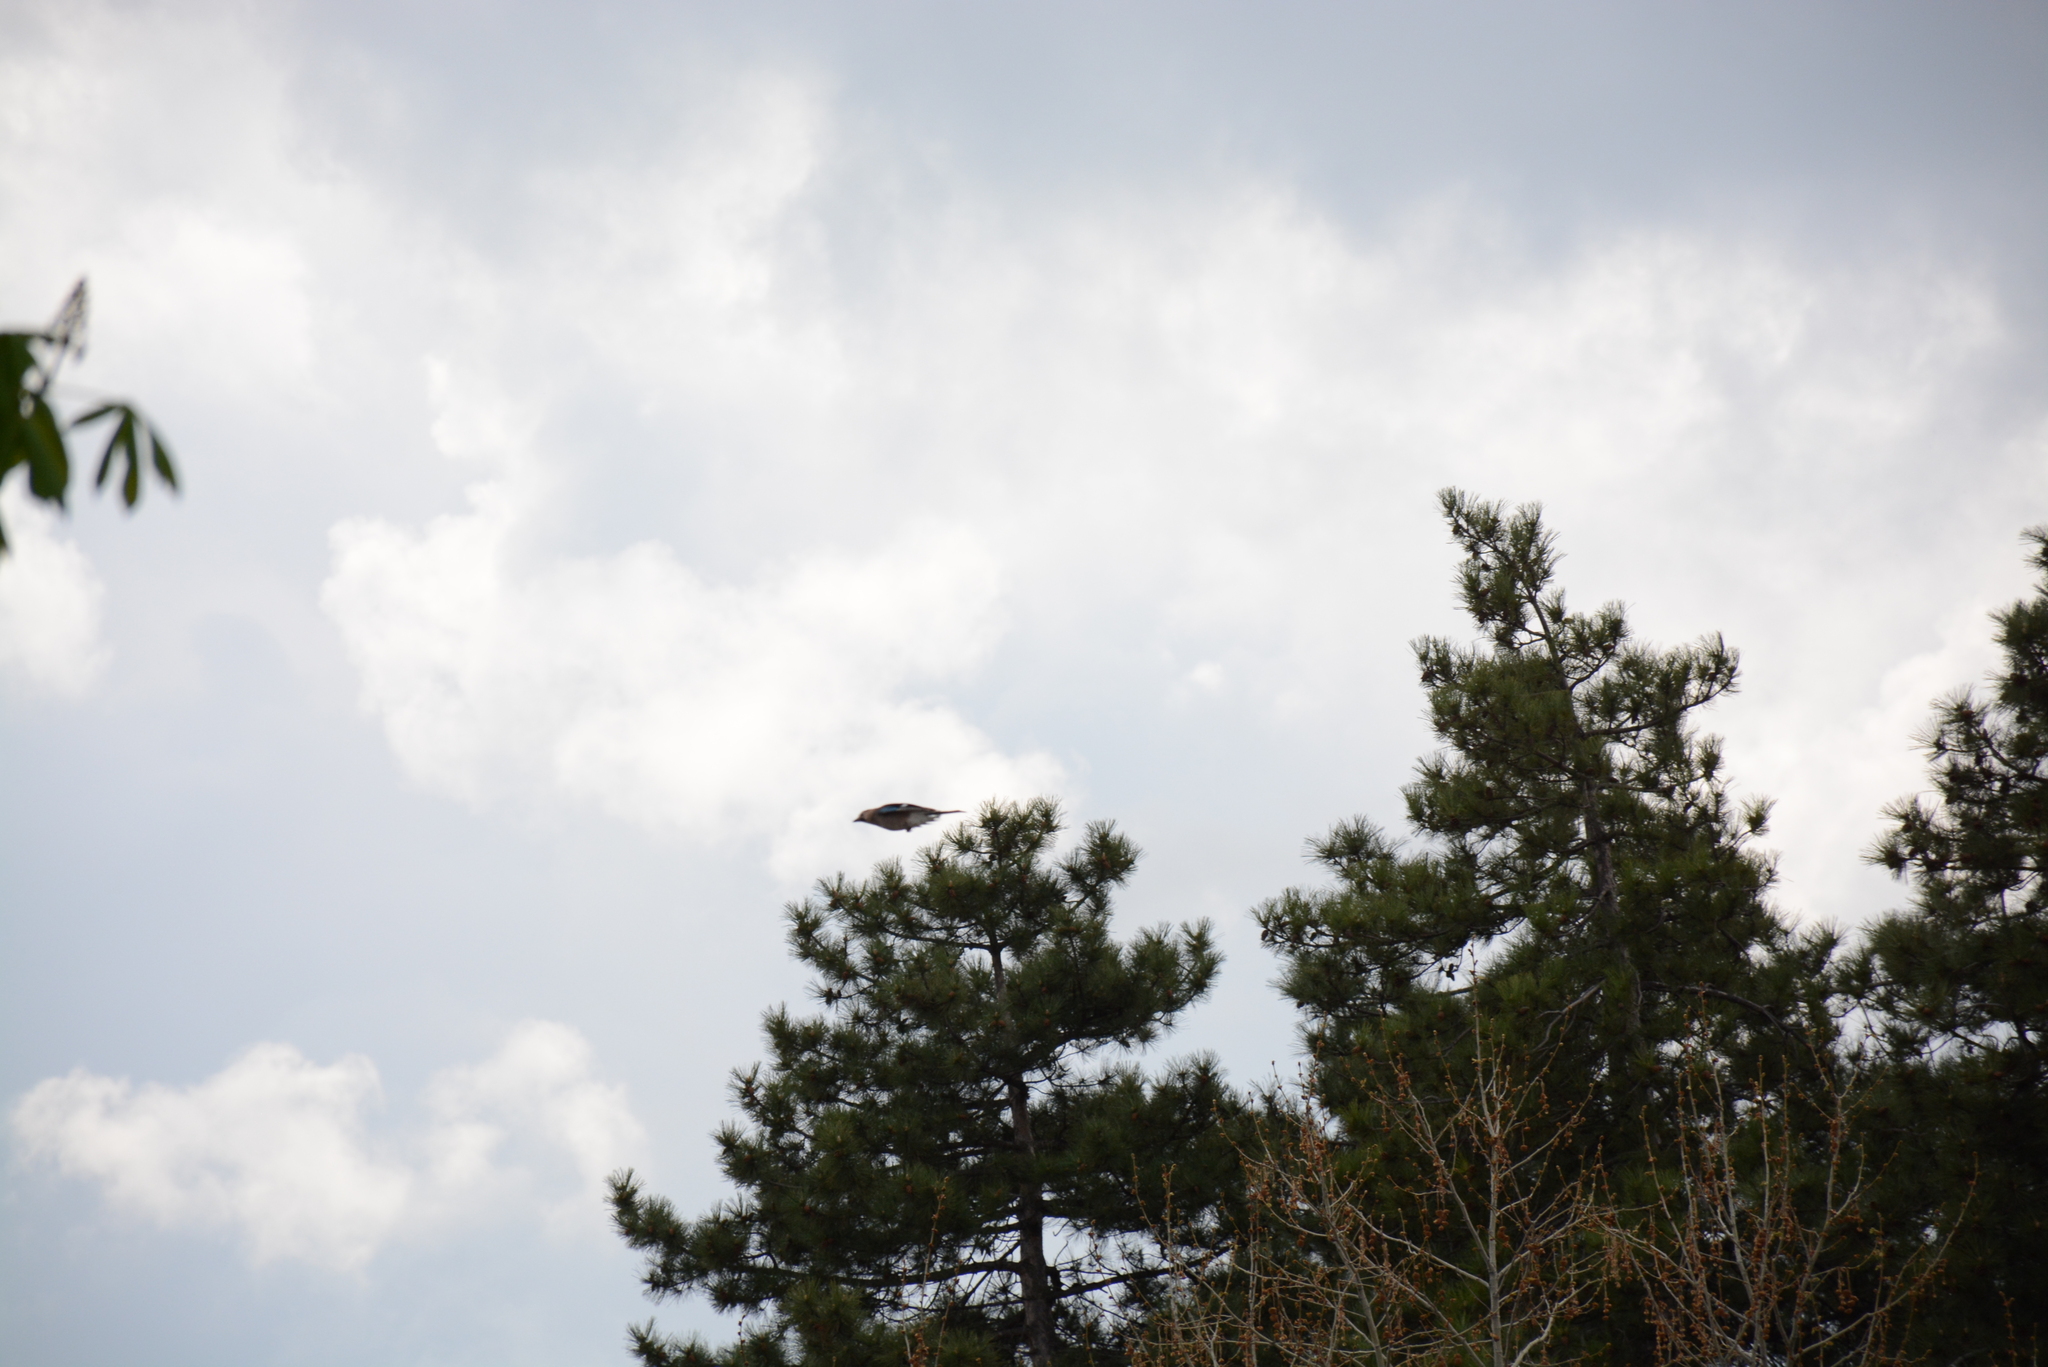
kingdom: Animalia
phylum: Chordata
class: Aves
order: Passeriformes
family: Corvidae
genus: Garrulus
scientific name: Garrulus glandarius
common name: Eurasian jay
